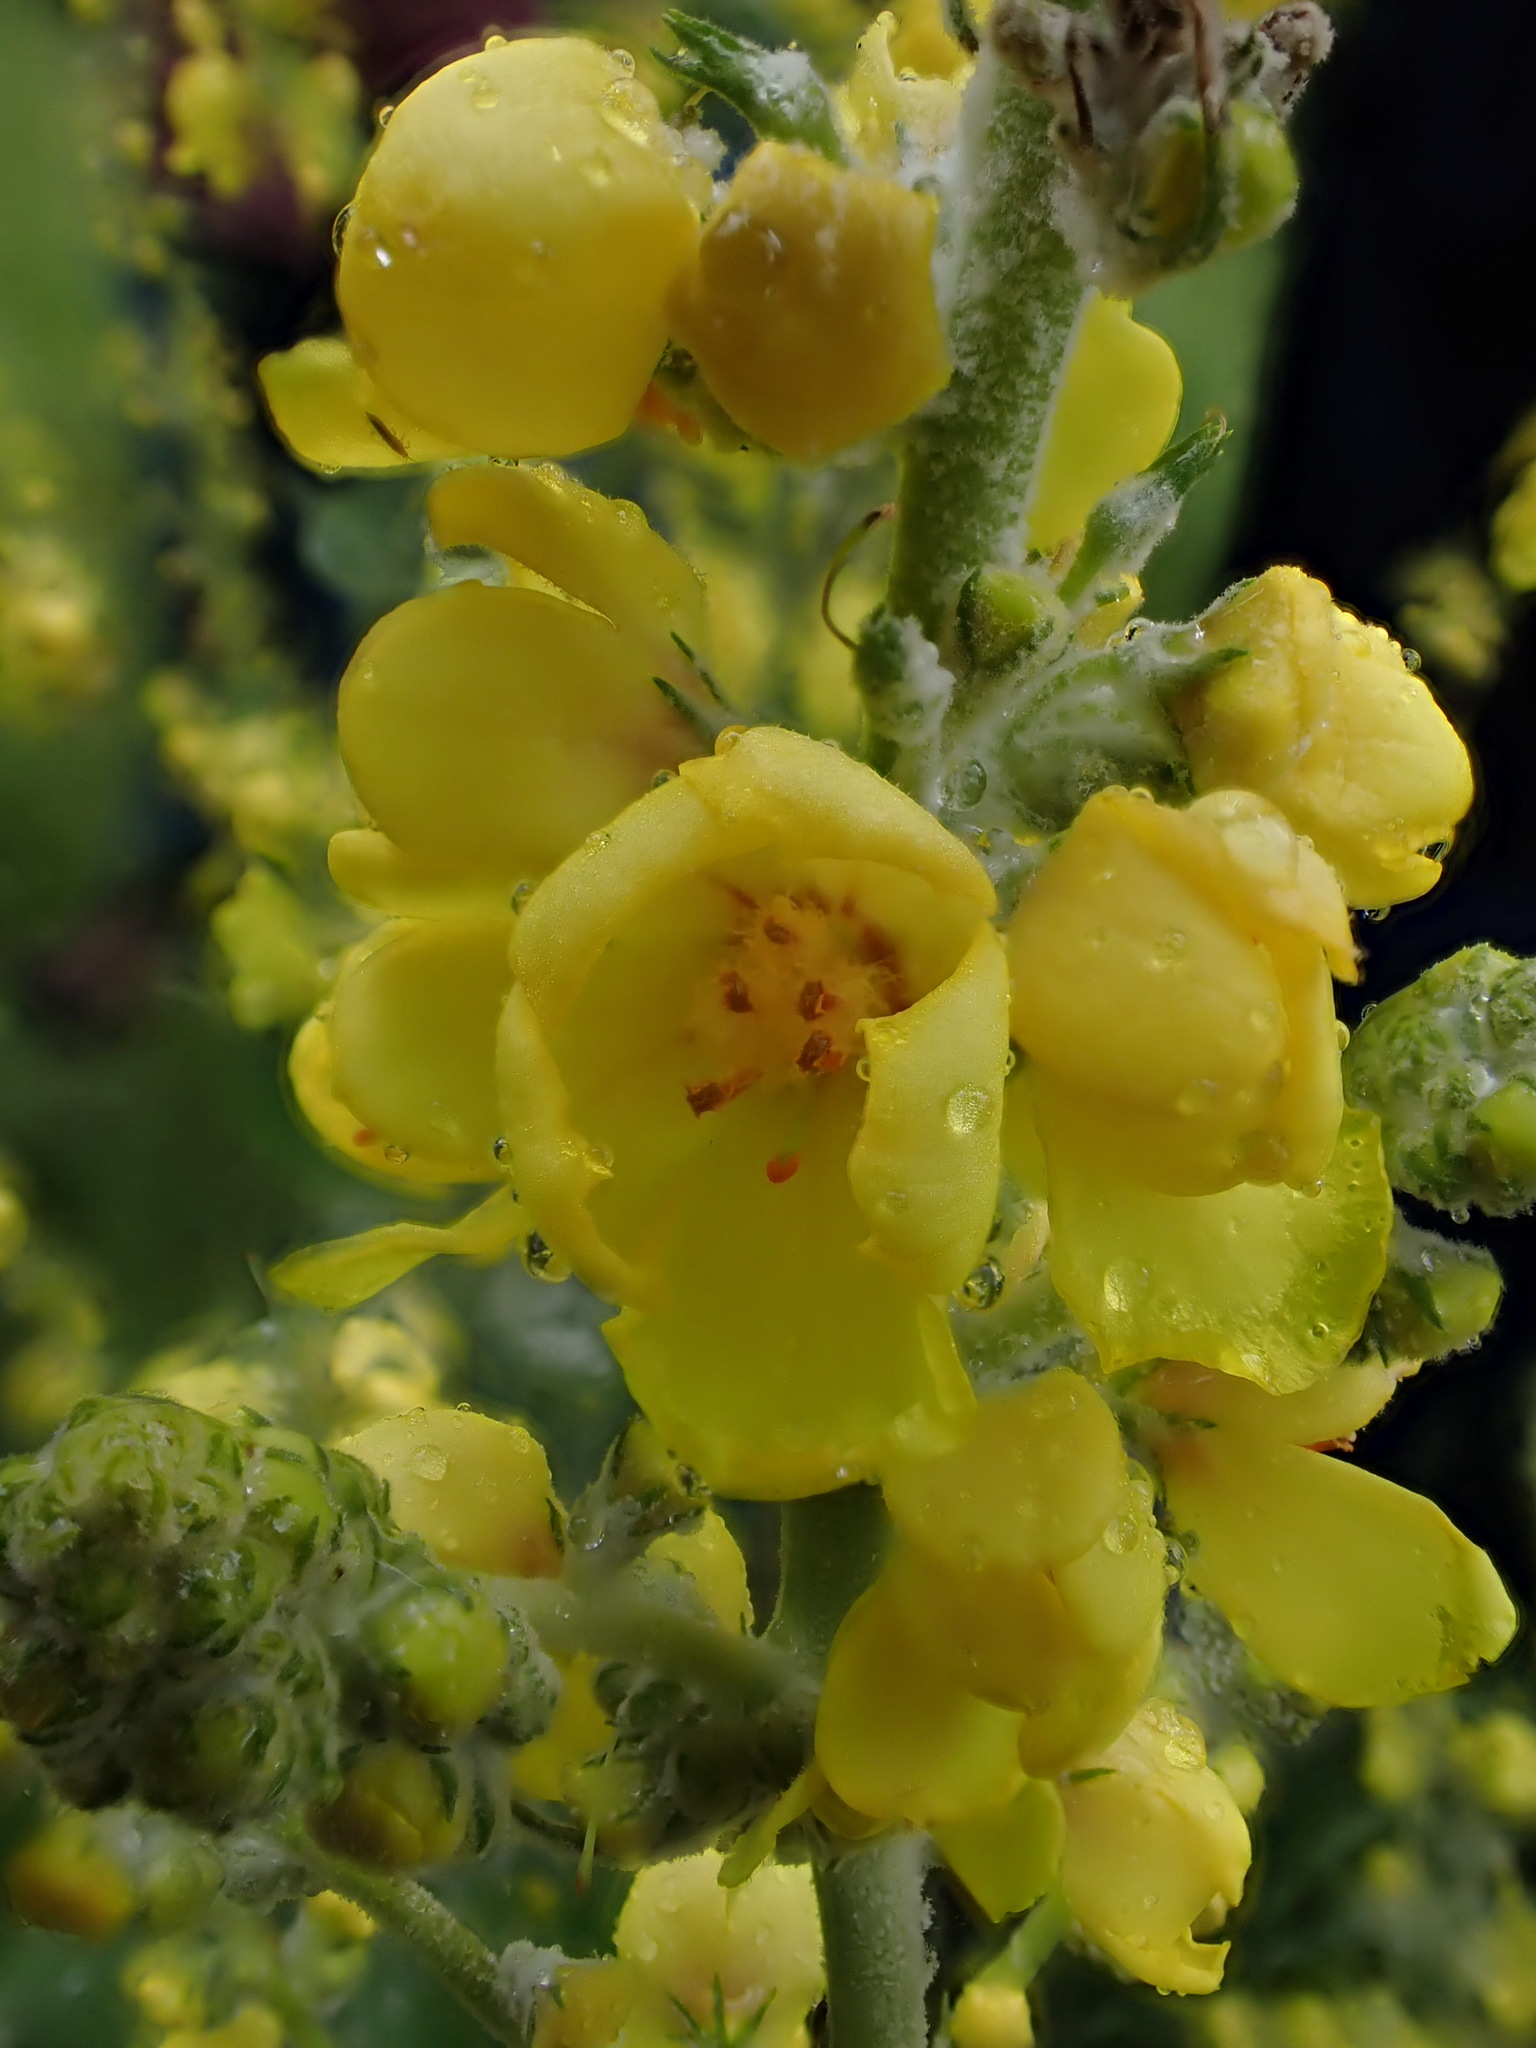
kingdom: Plantae
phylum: Tracheophyta
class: Magnoliopsida
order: Lamiales
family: Scrophulariaceae
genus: Verbascum
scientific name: Verbascum pulverulentum
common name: Broad-leaf mullein
